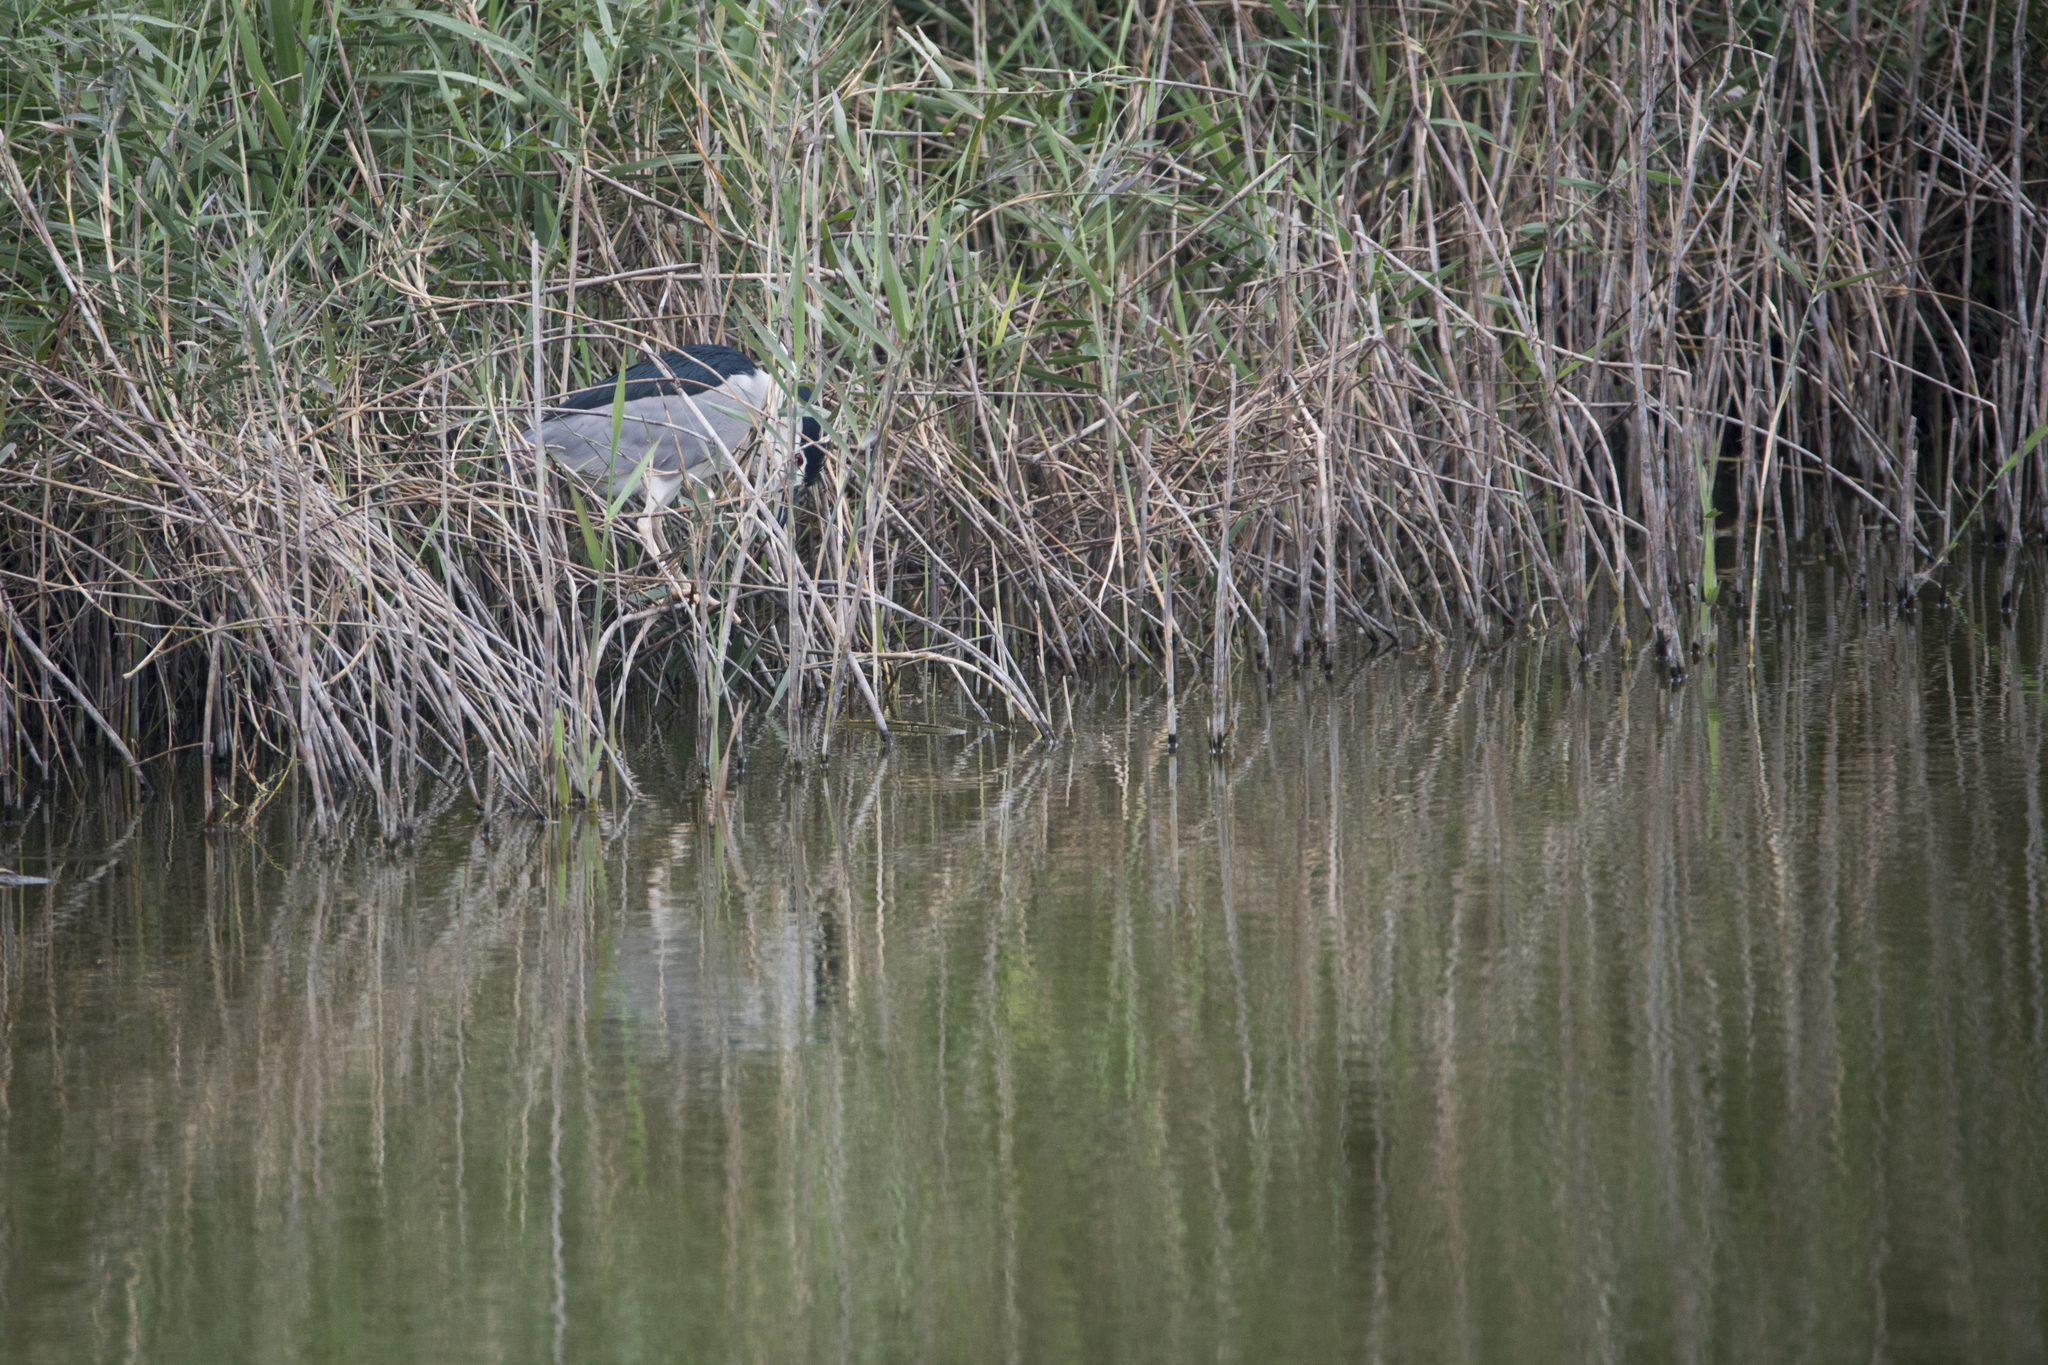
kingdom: Animalia
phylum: Chordata
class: Aves
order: Pelecaniformes
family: Ardeidae
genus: Nycticorax
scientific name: Nycticorax nycticorax
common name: Black-crowned night heron
